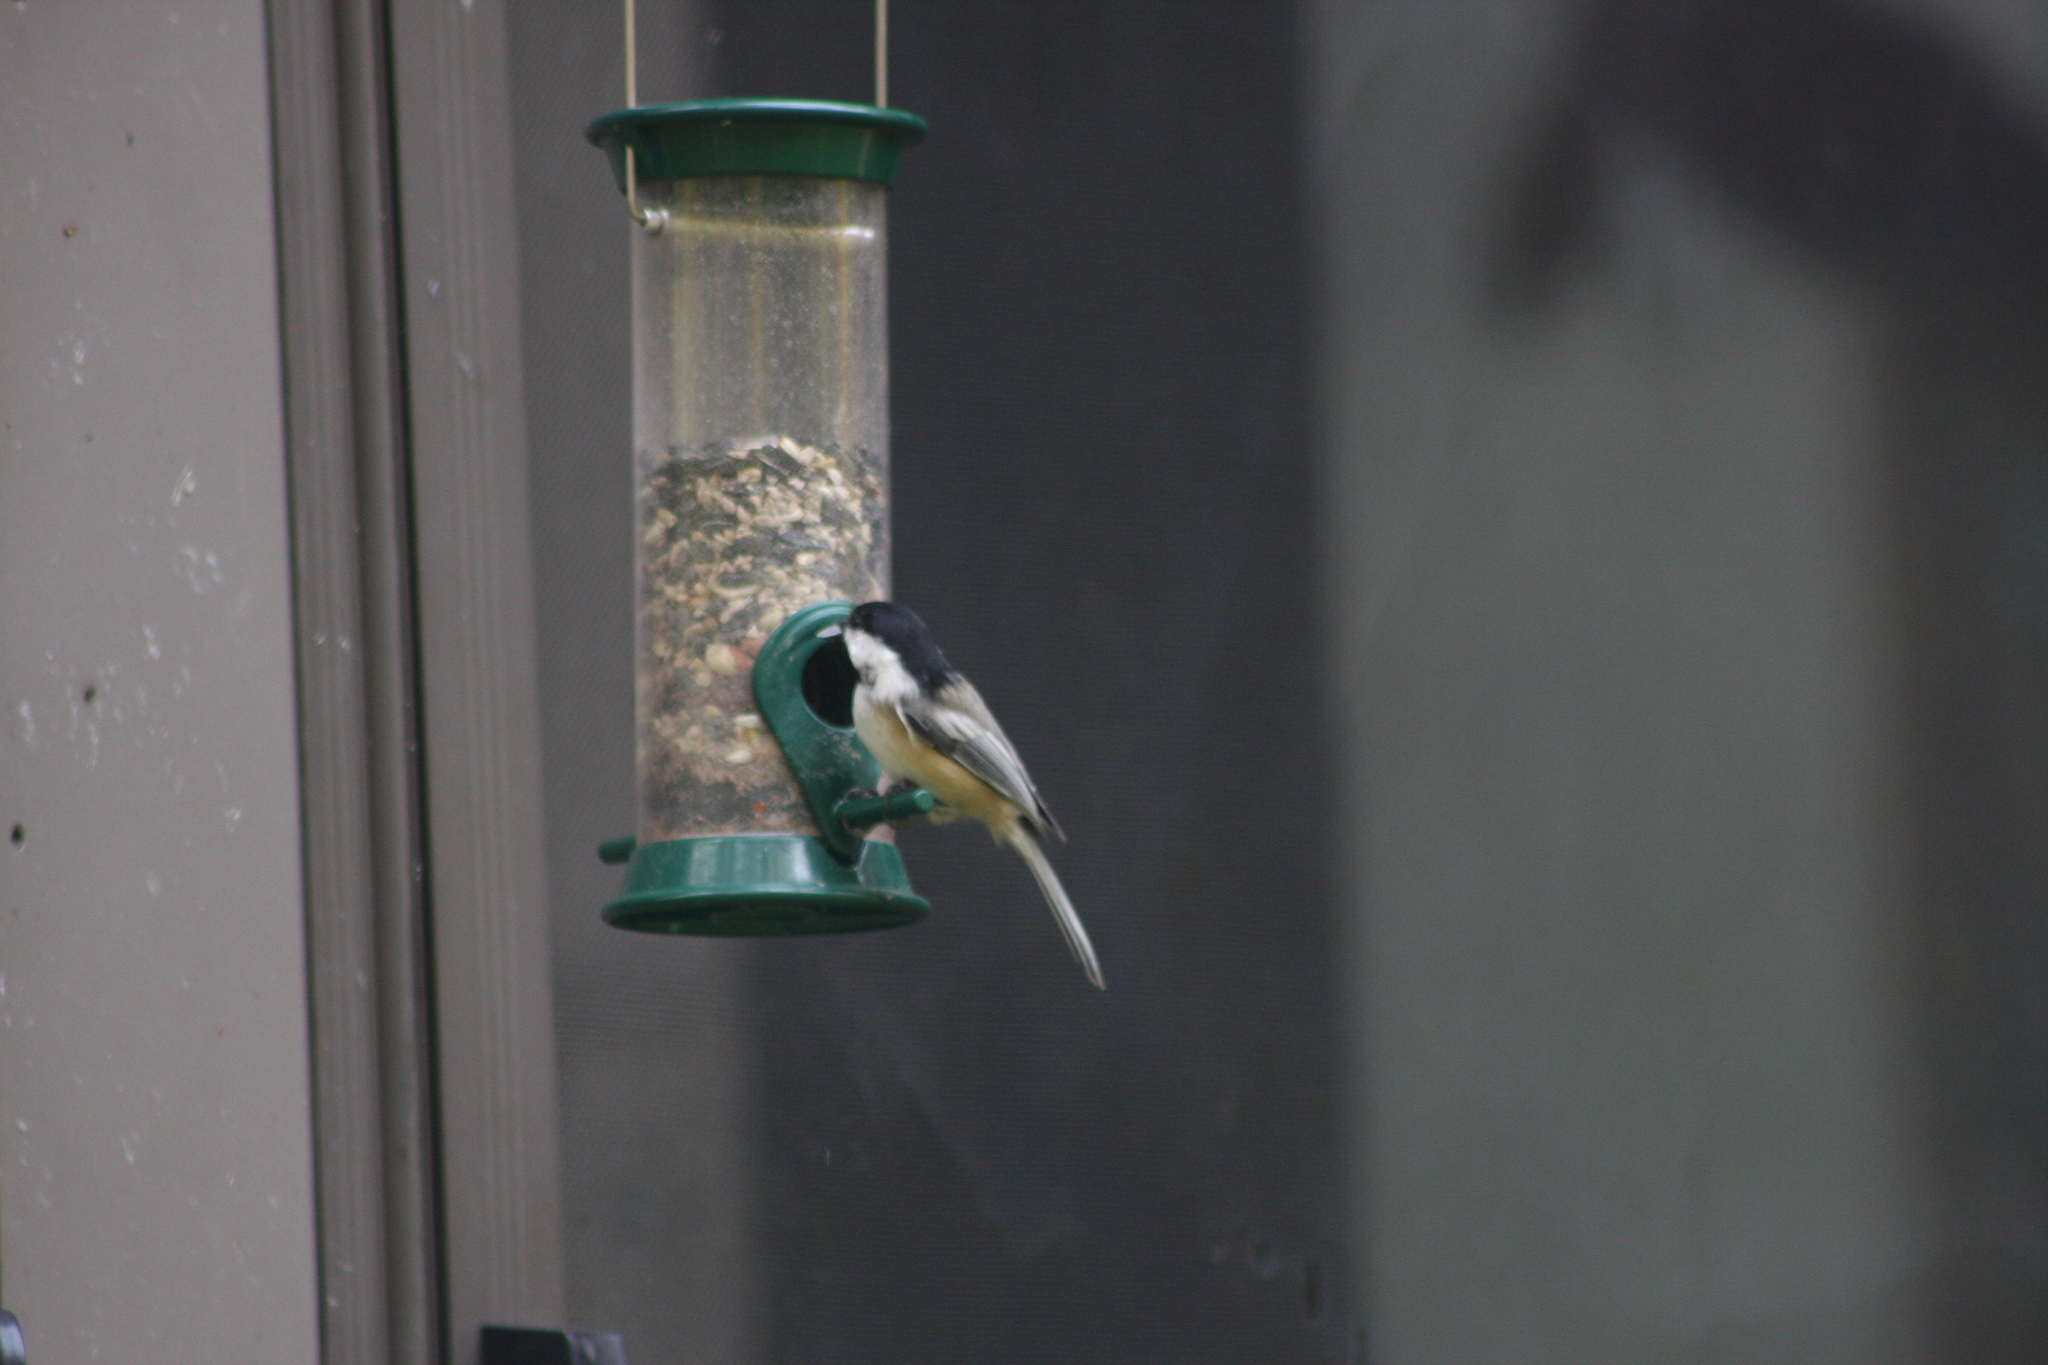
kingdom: Animalia
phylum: Chordata
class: Aves
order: Passeriformes
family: Paridae
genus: Poecile
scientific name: Poecile atricapillus
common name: Black-capped chickadee
